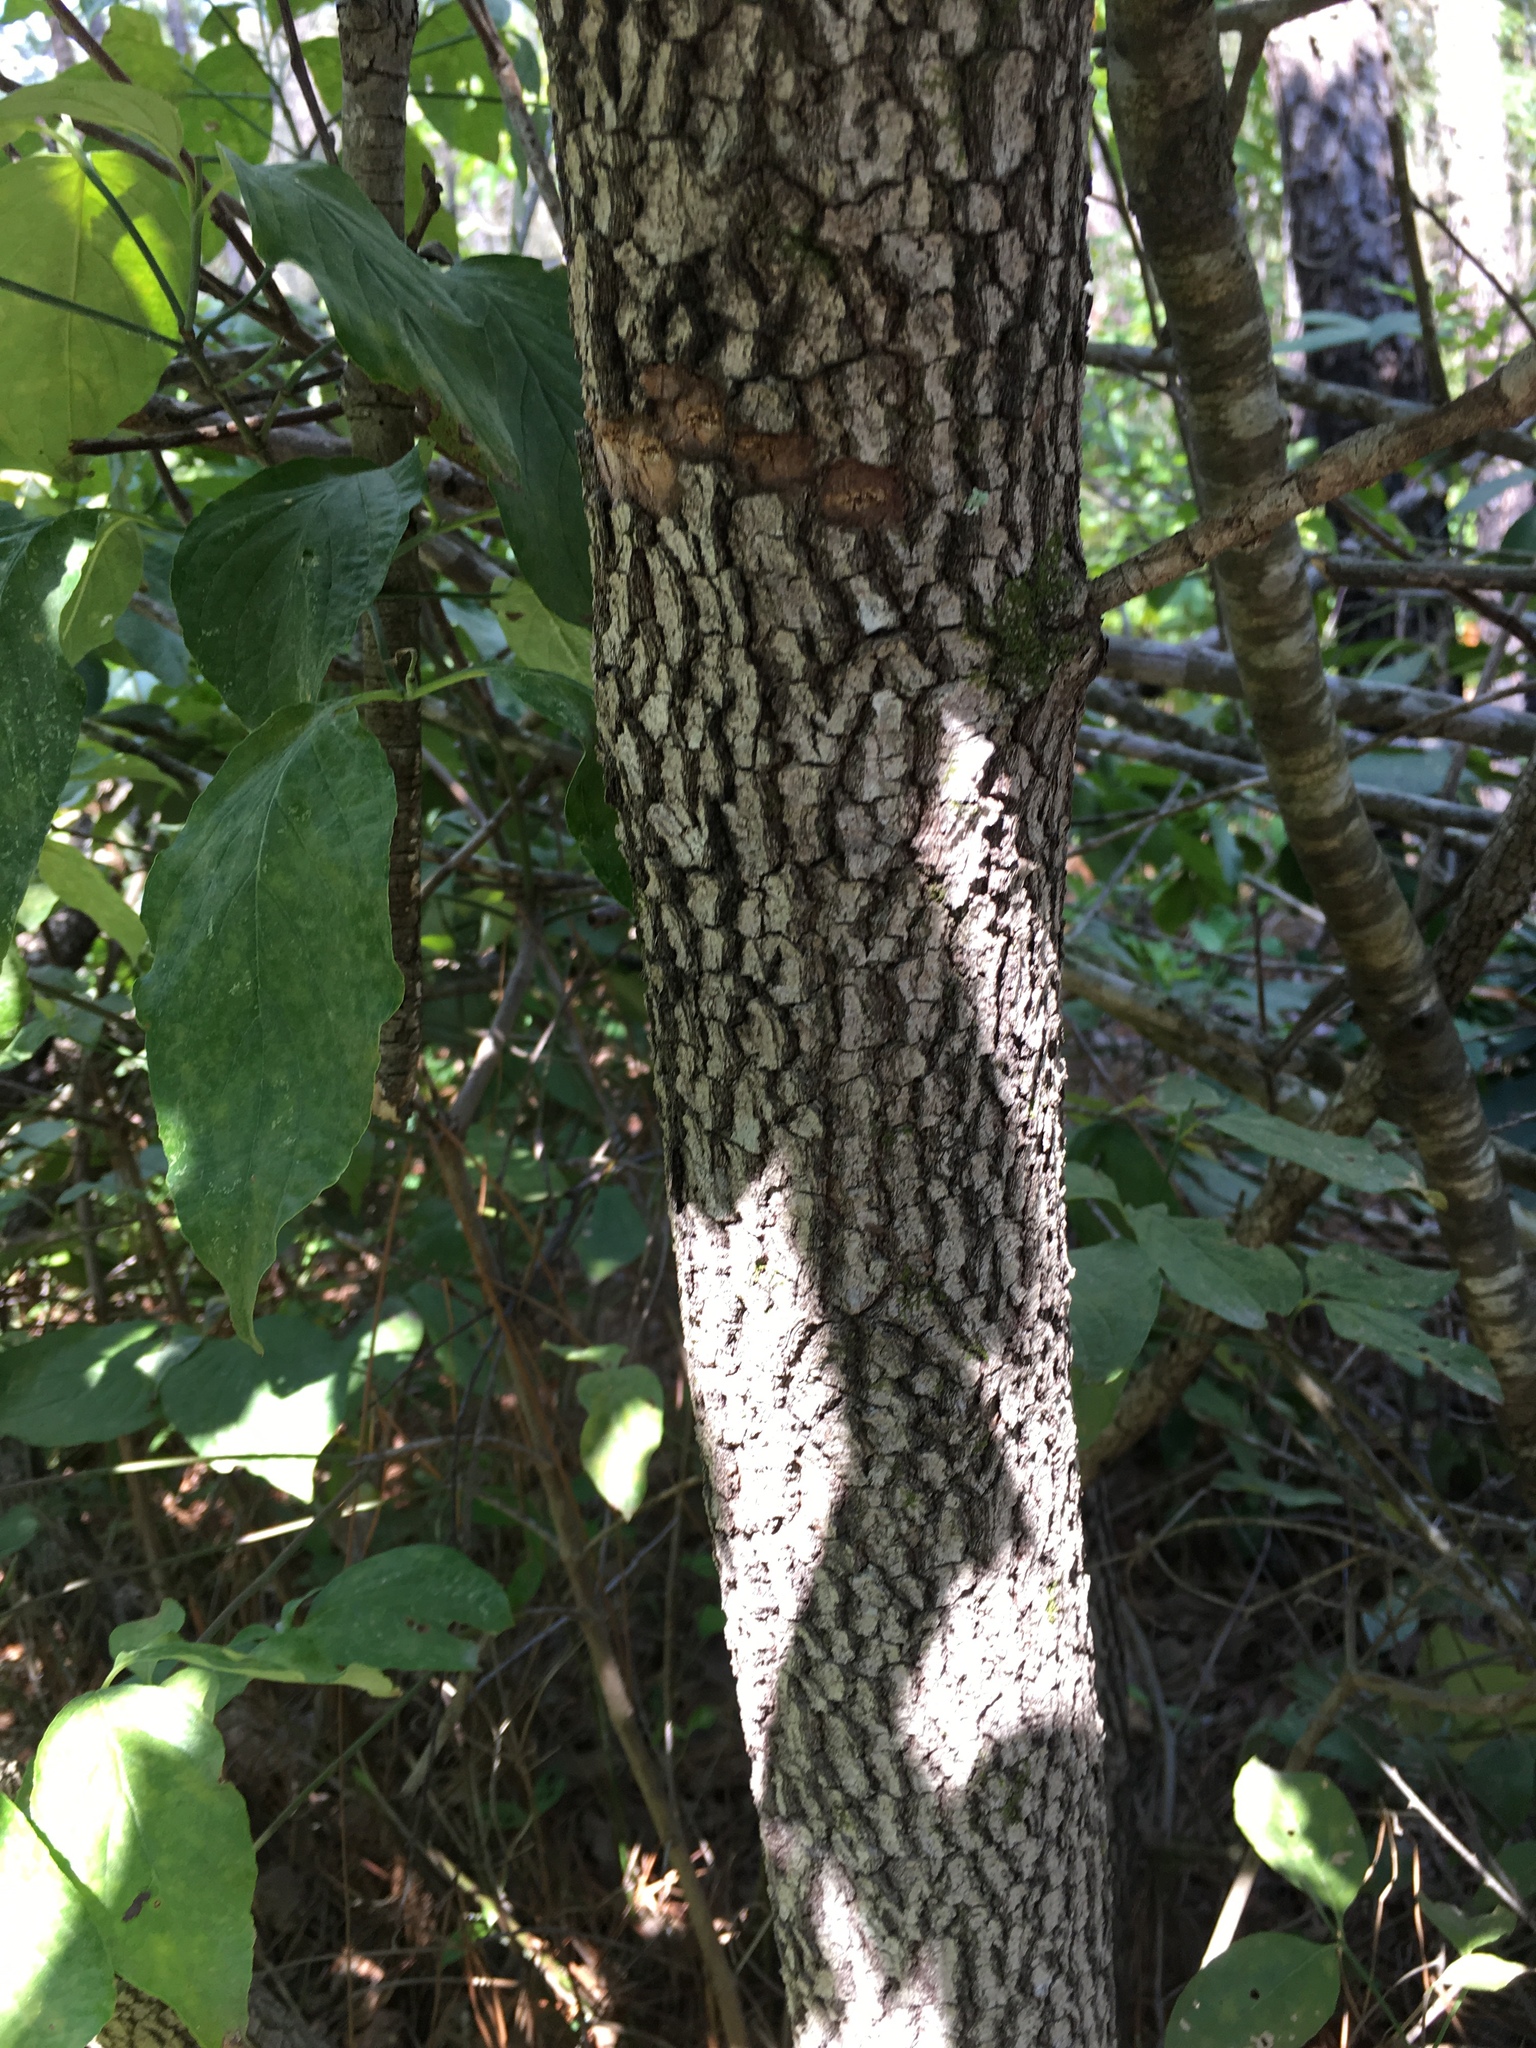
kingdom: Plantae
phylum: Tracheophyta
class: Magnoliopsida
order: Cornales
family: Cornaceae
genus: Cornus
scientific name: Cornus florida
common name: Flowering dogwood
